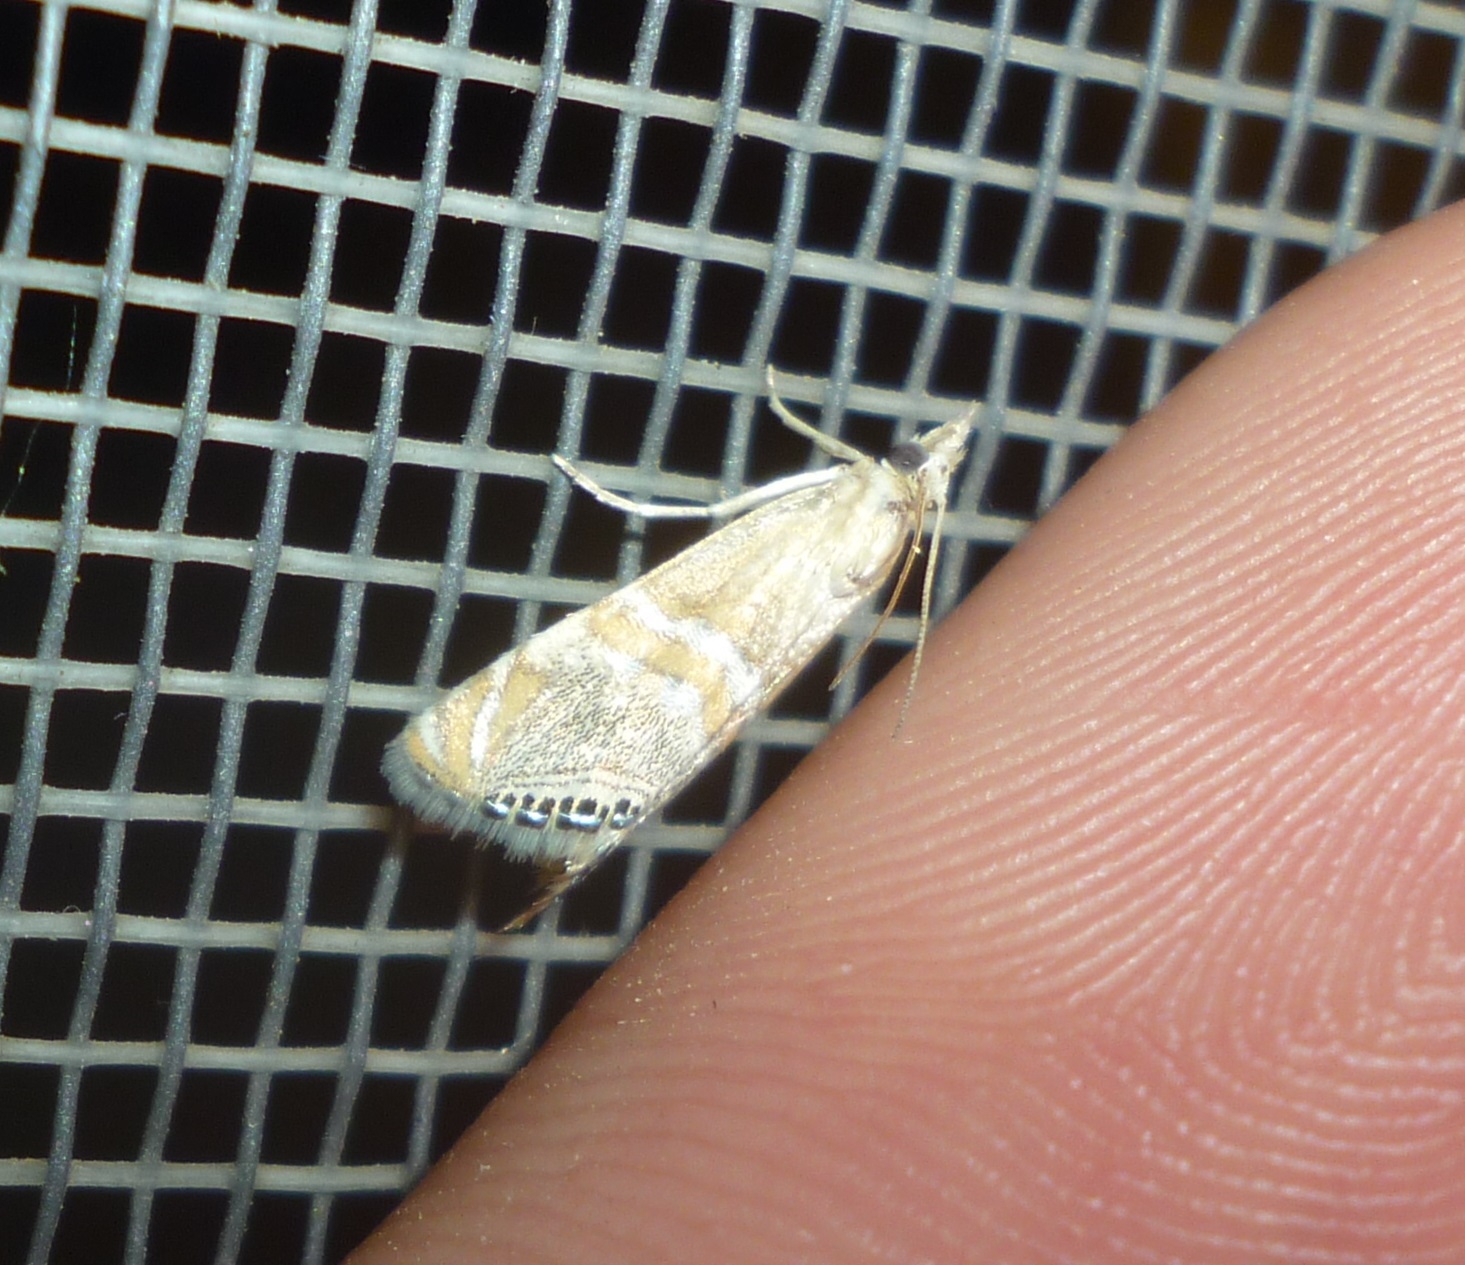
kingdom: Animalia
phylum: Arthropoda
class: Insecta
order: Lepidoptera
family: Crambidae
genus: Euchromius
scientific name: Euchromius superbella
